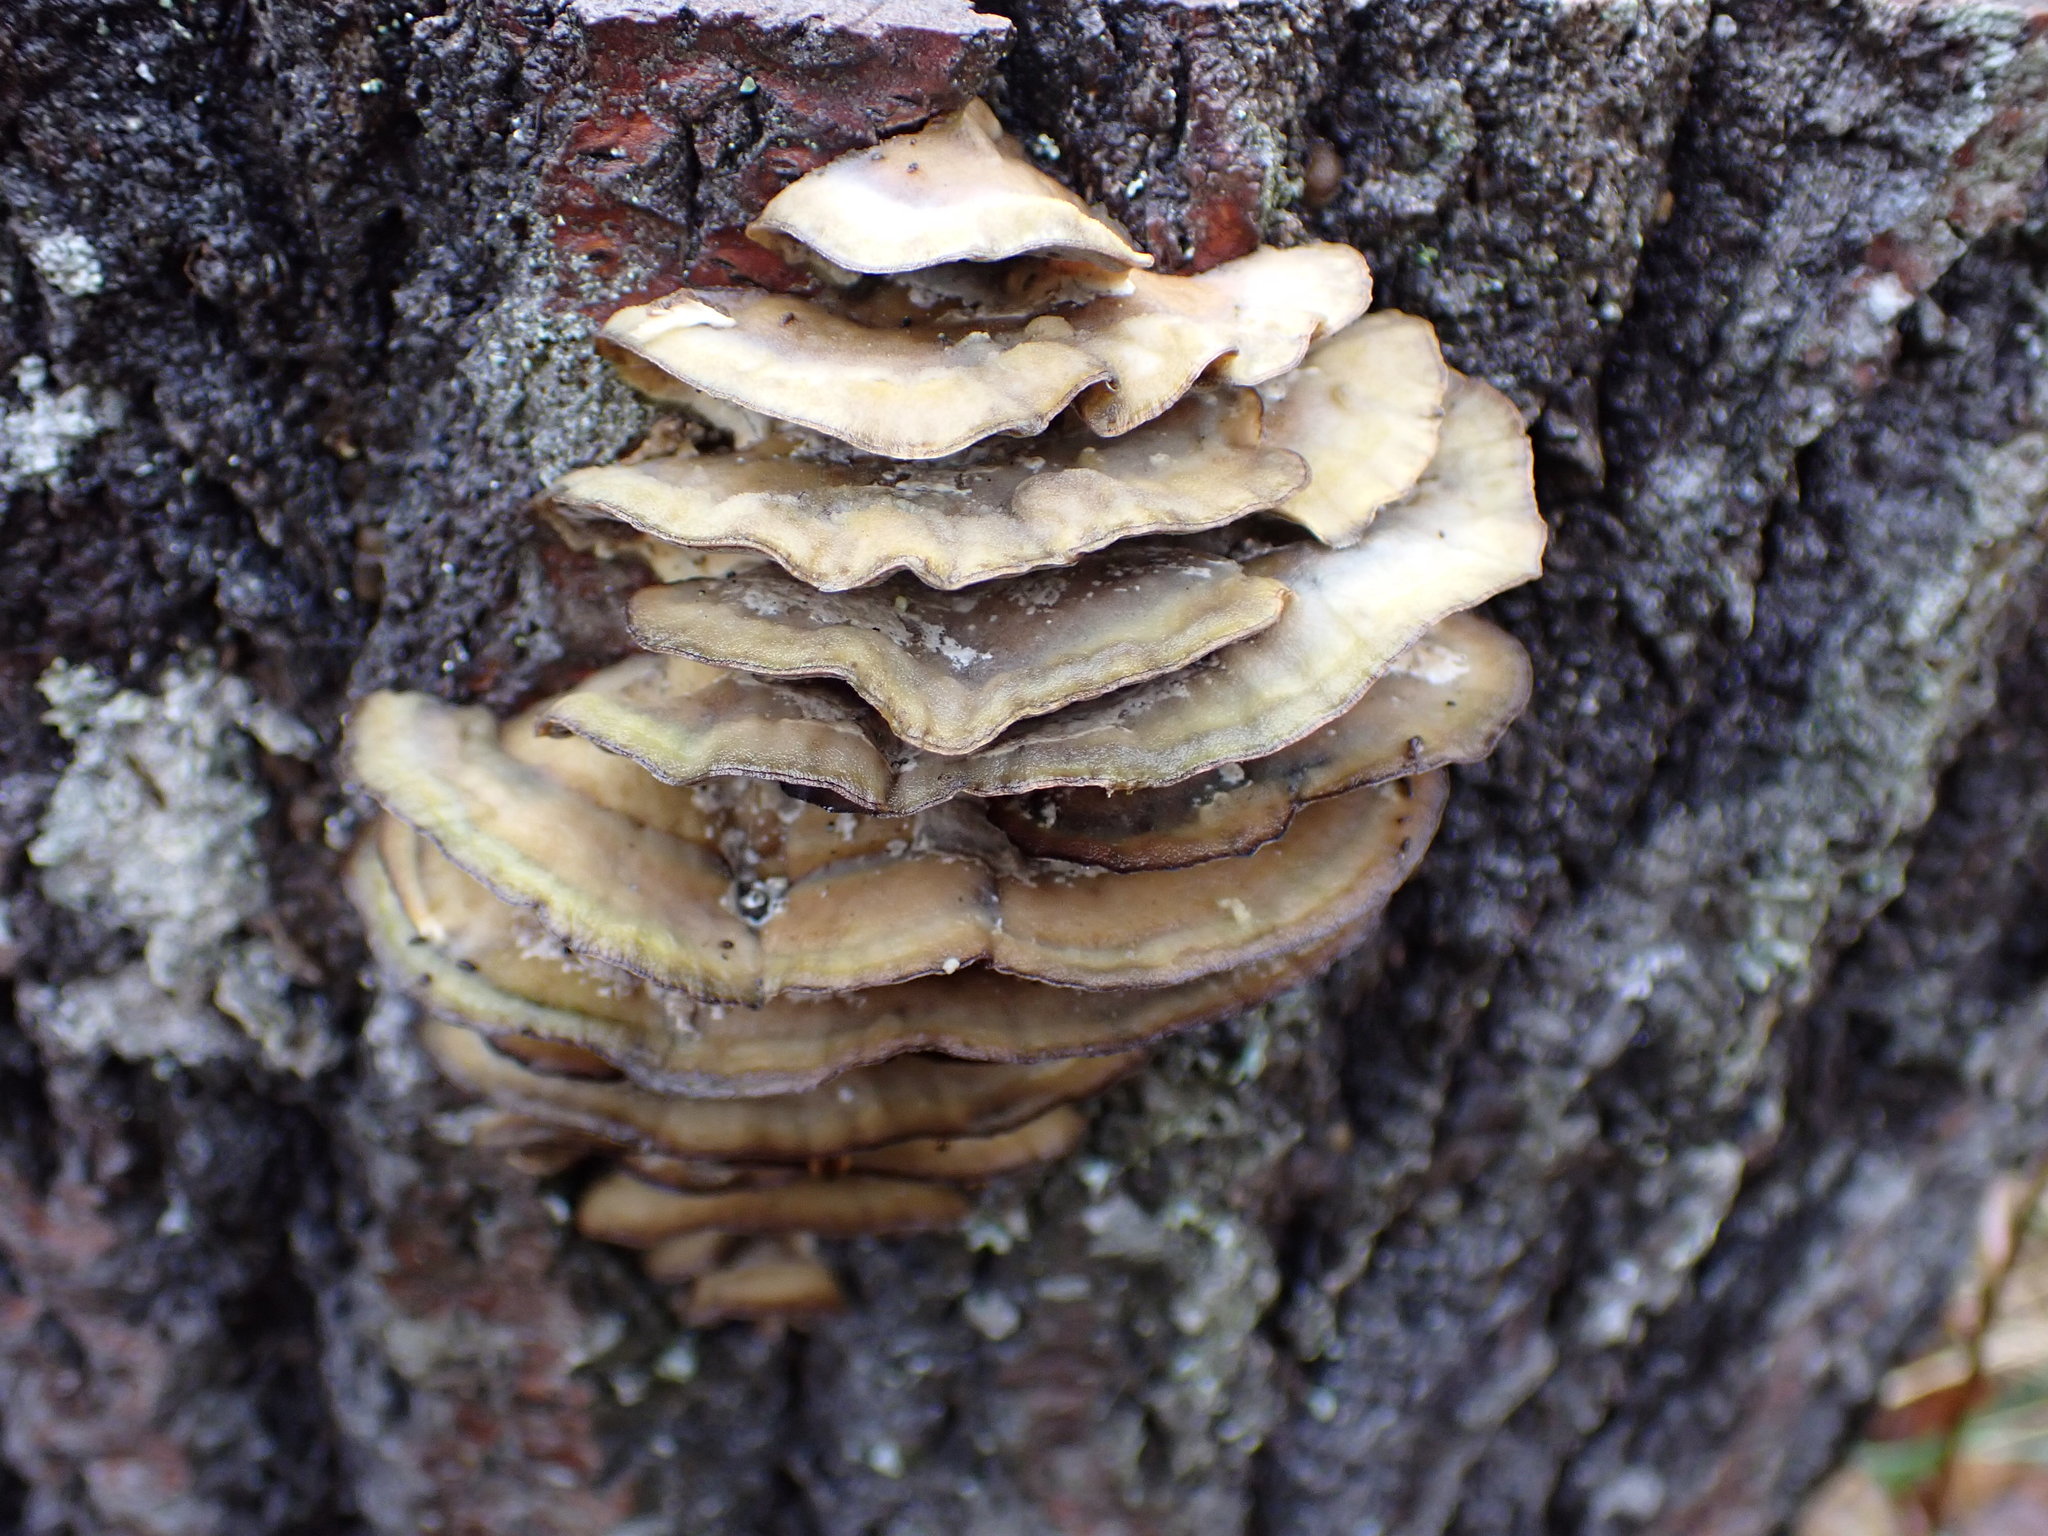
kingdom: Fungi
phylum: Basidiomycota
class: Agaricomycetes
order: Polyporales
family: Phanerochaetaceae
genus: Bjerkandera
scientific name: Bjerkandera adusta
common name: Smoky bracket
